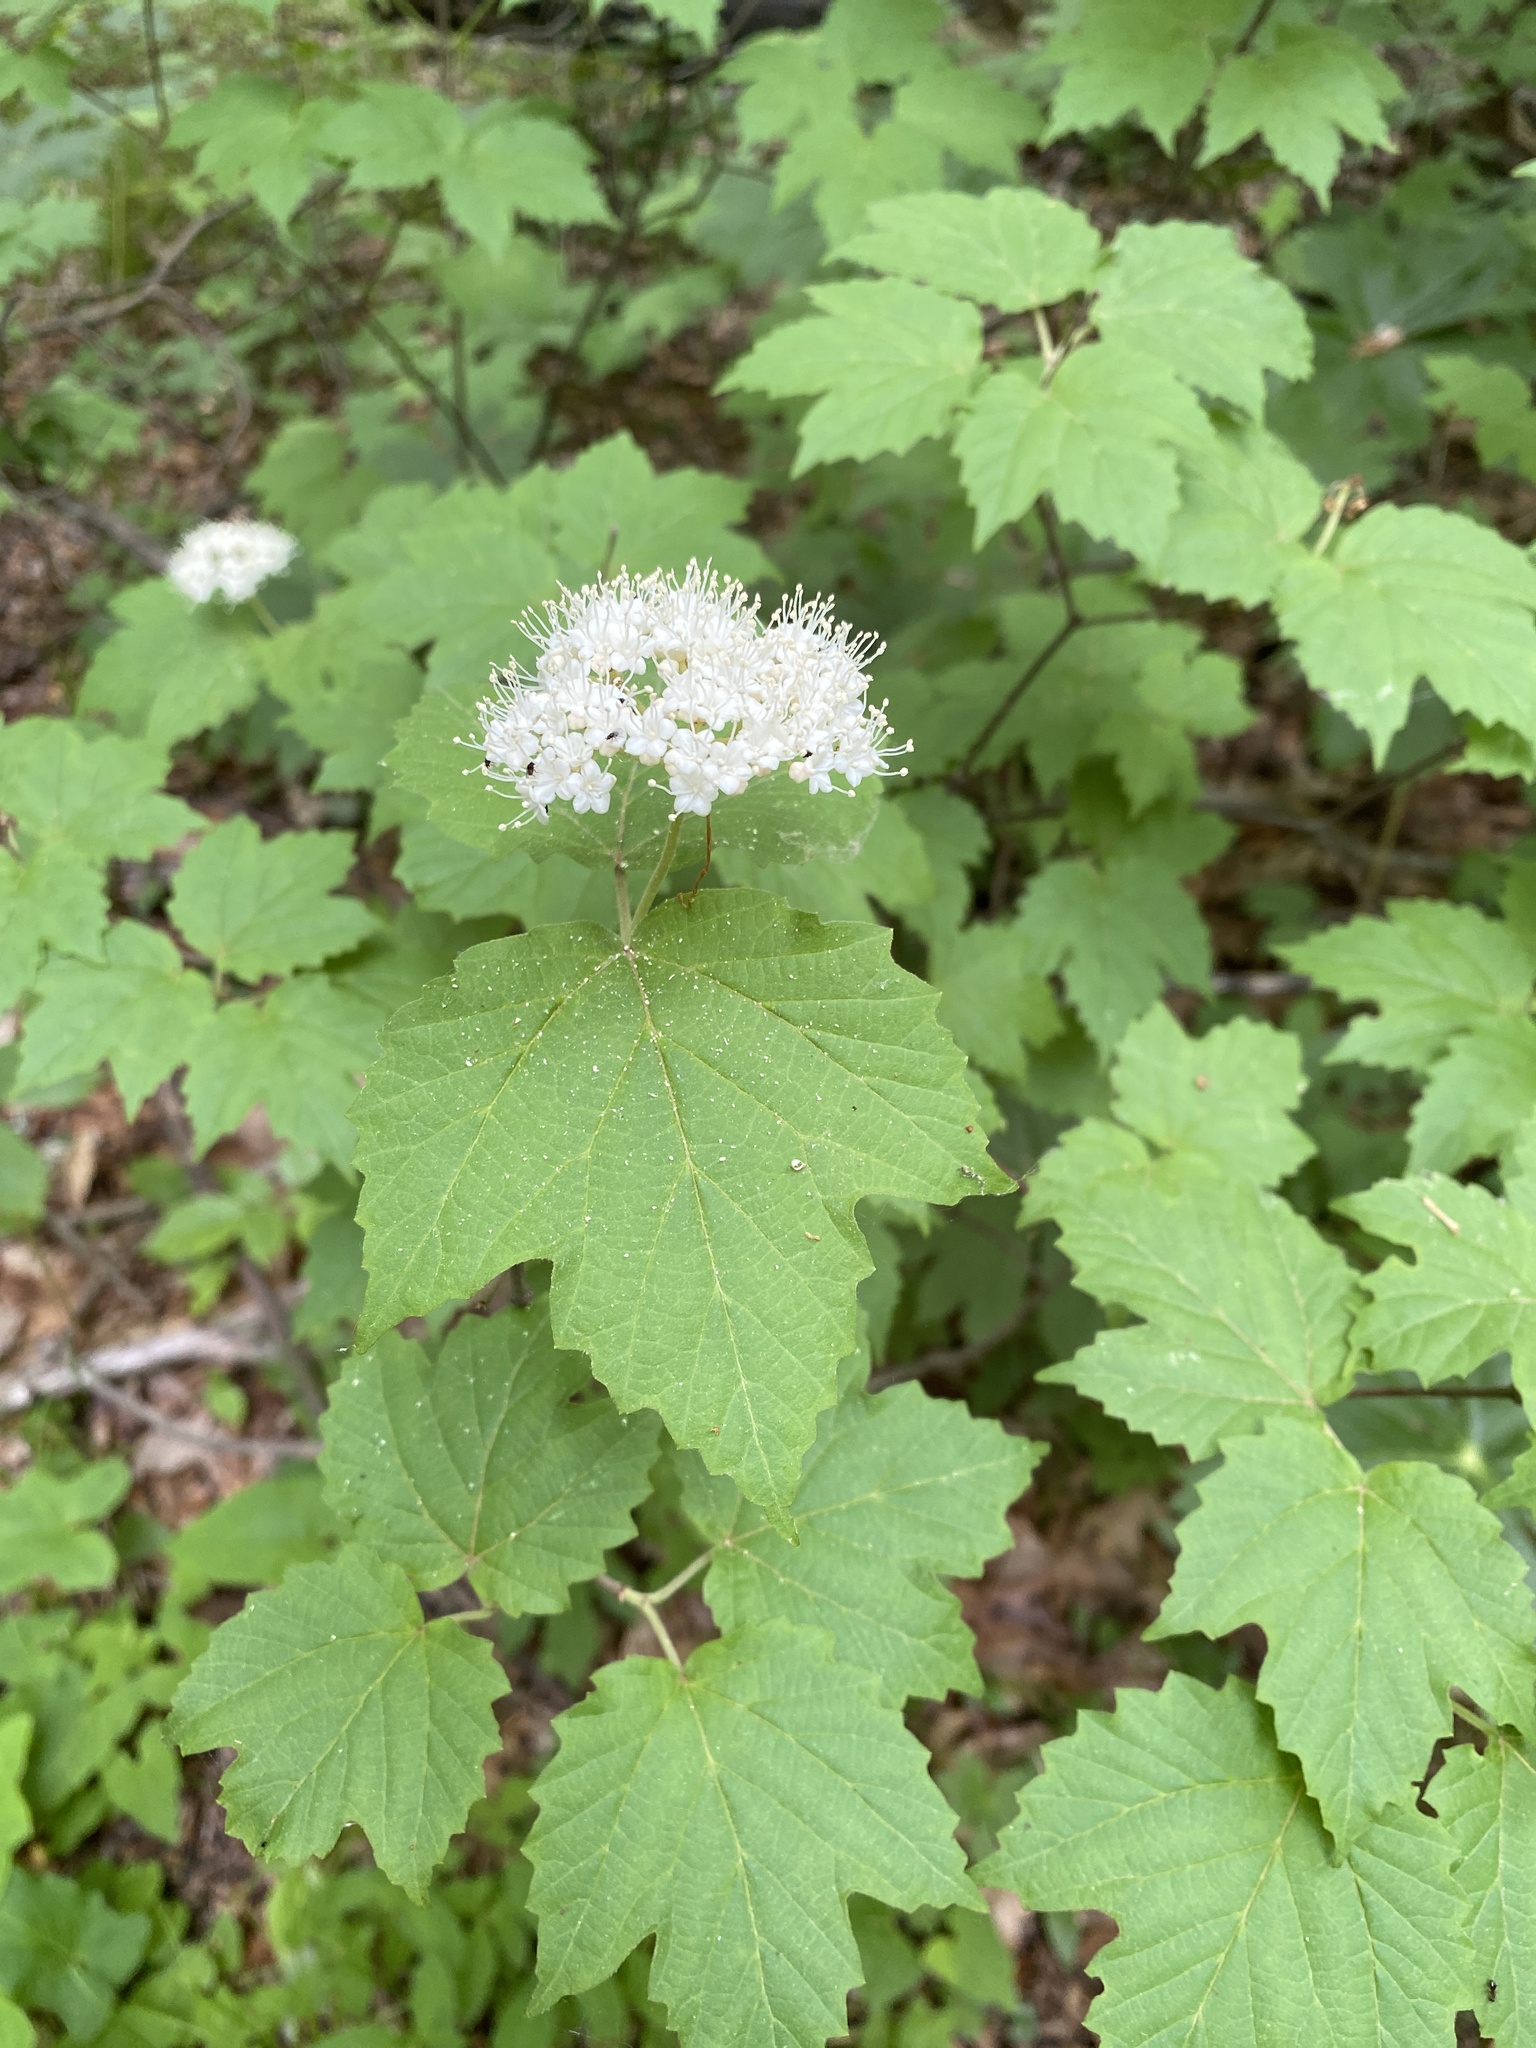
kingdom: Plantae
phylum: Tracheophyta
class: Magnoliopsida
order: Dipsacales
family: Viburnaceae
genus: Viburnum
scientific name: Viburnum acerifolium
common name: Dockmackie
